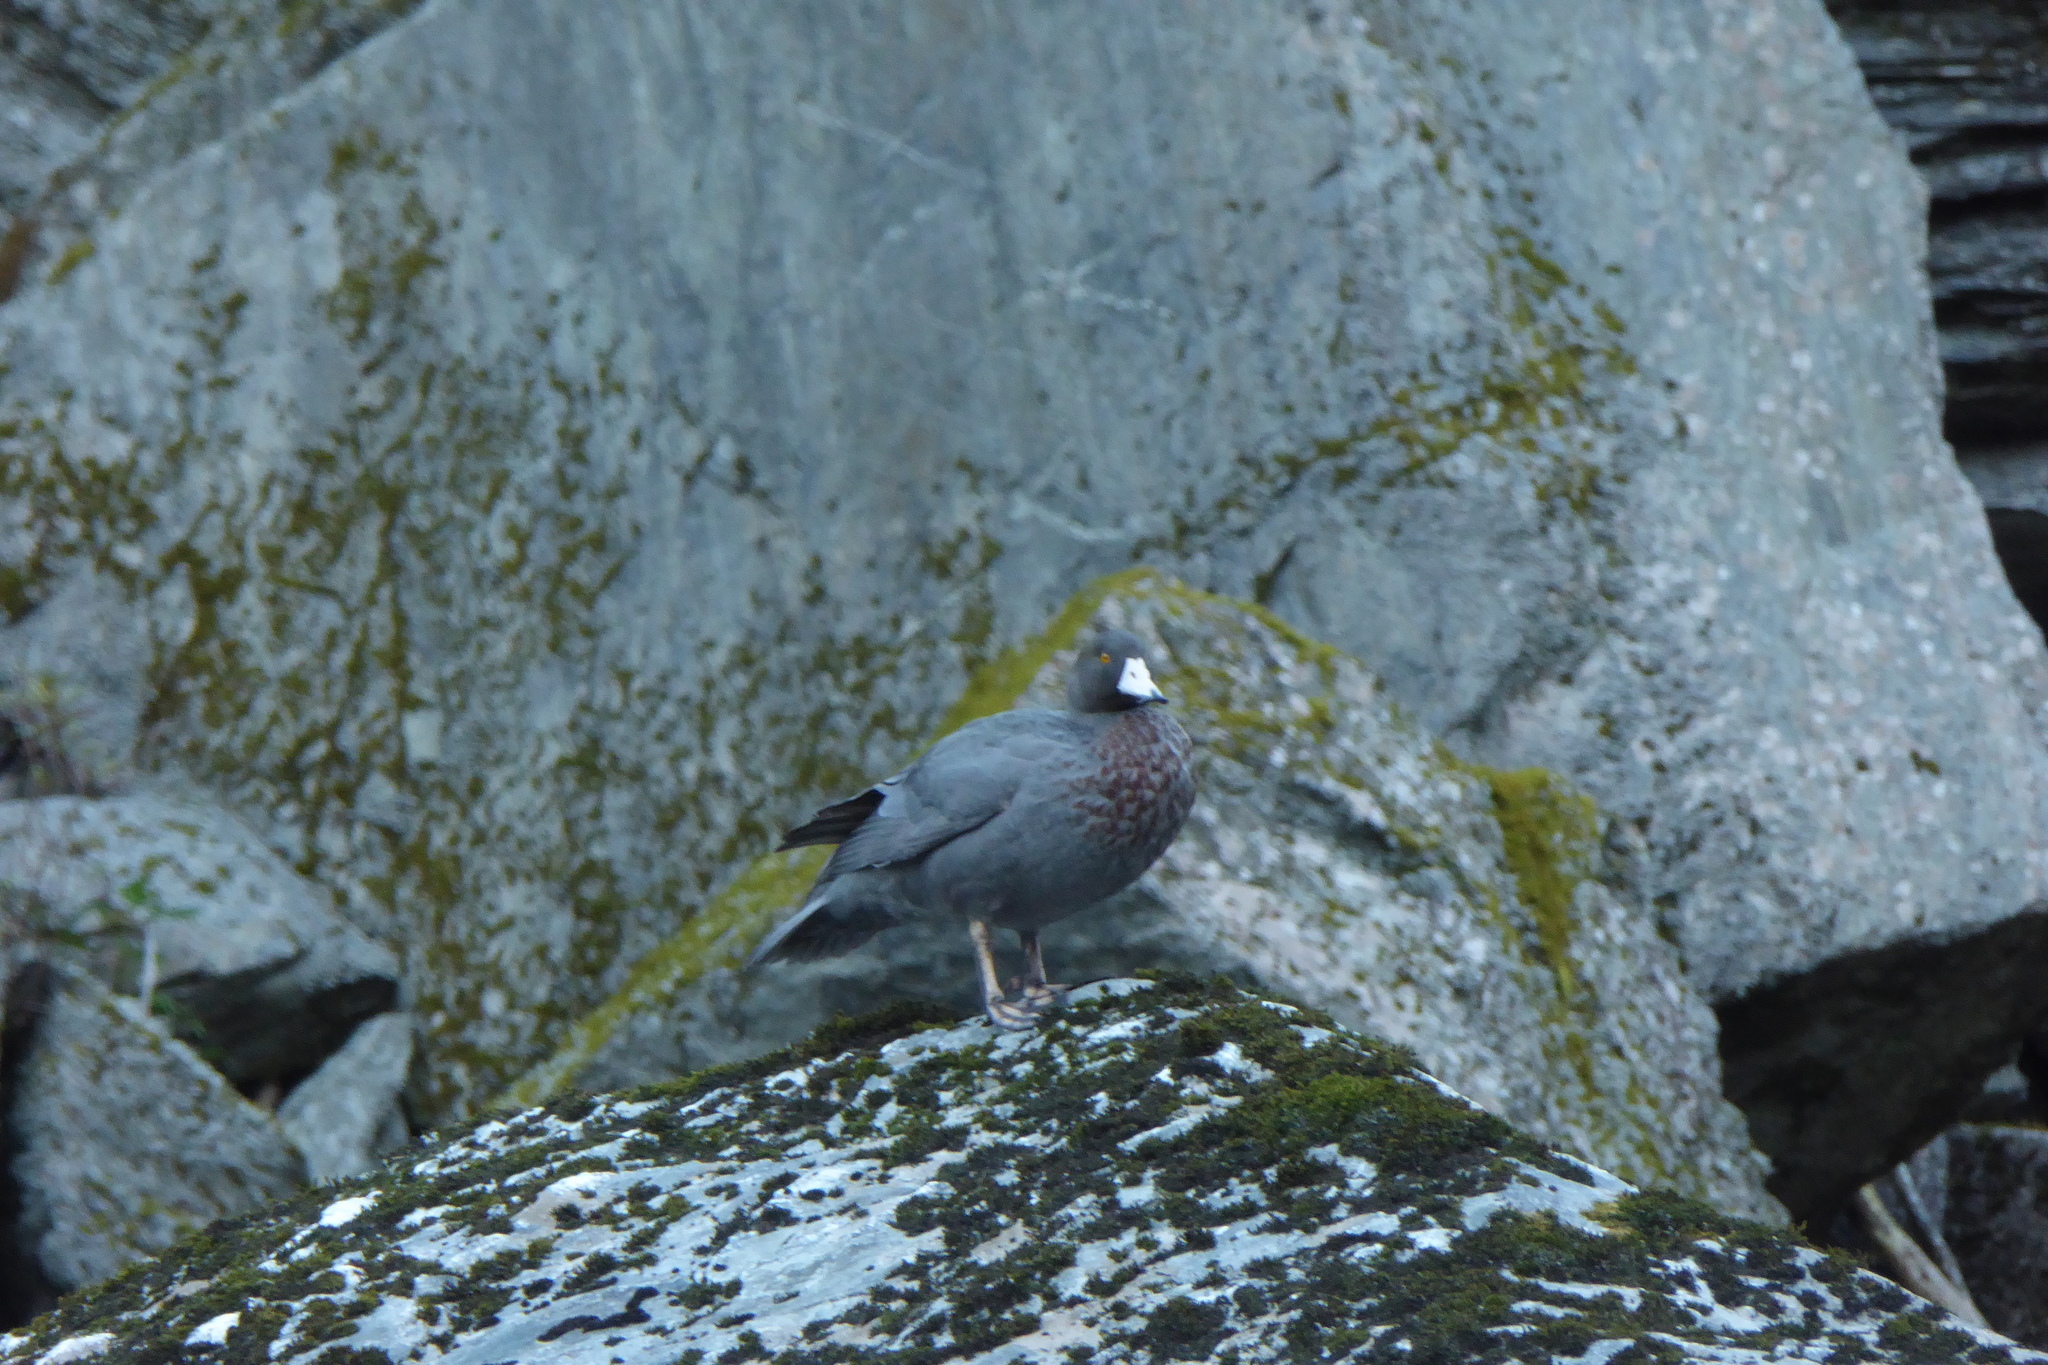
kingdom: Animalia
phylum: Chordata
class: Aves
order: Anseriformes
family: Anatidae
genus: Hymenolaimus
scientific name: Hymenolaimus malacorhynchos
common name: Blue duck
